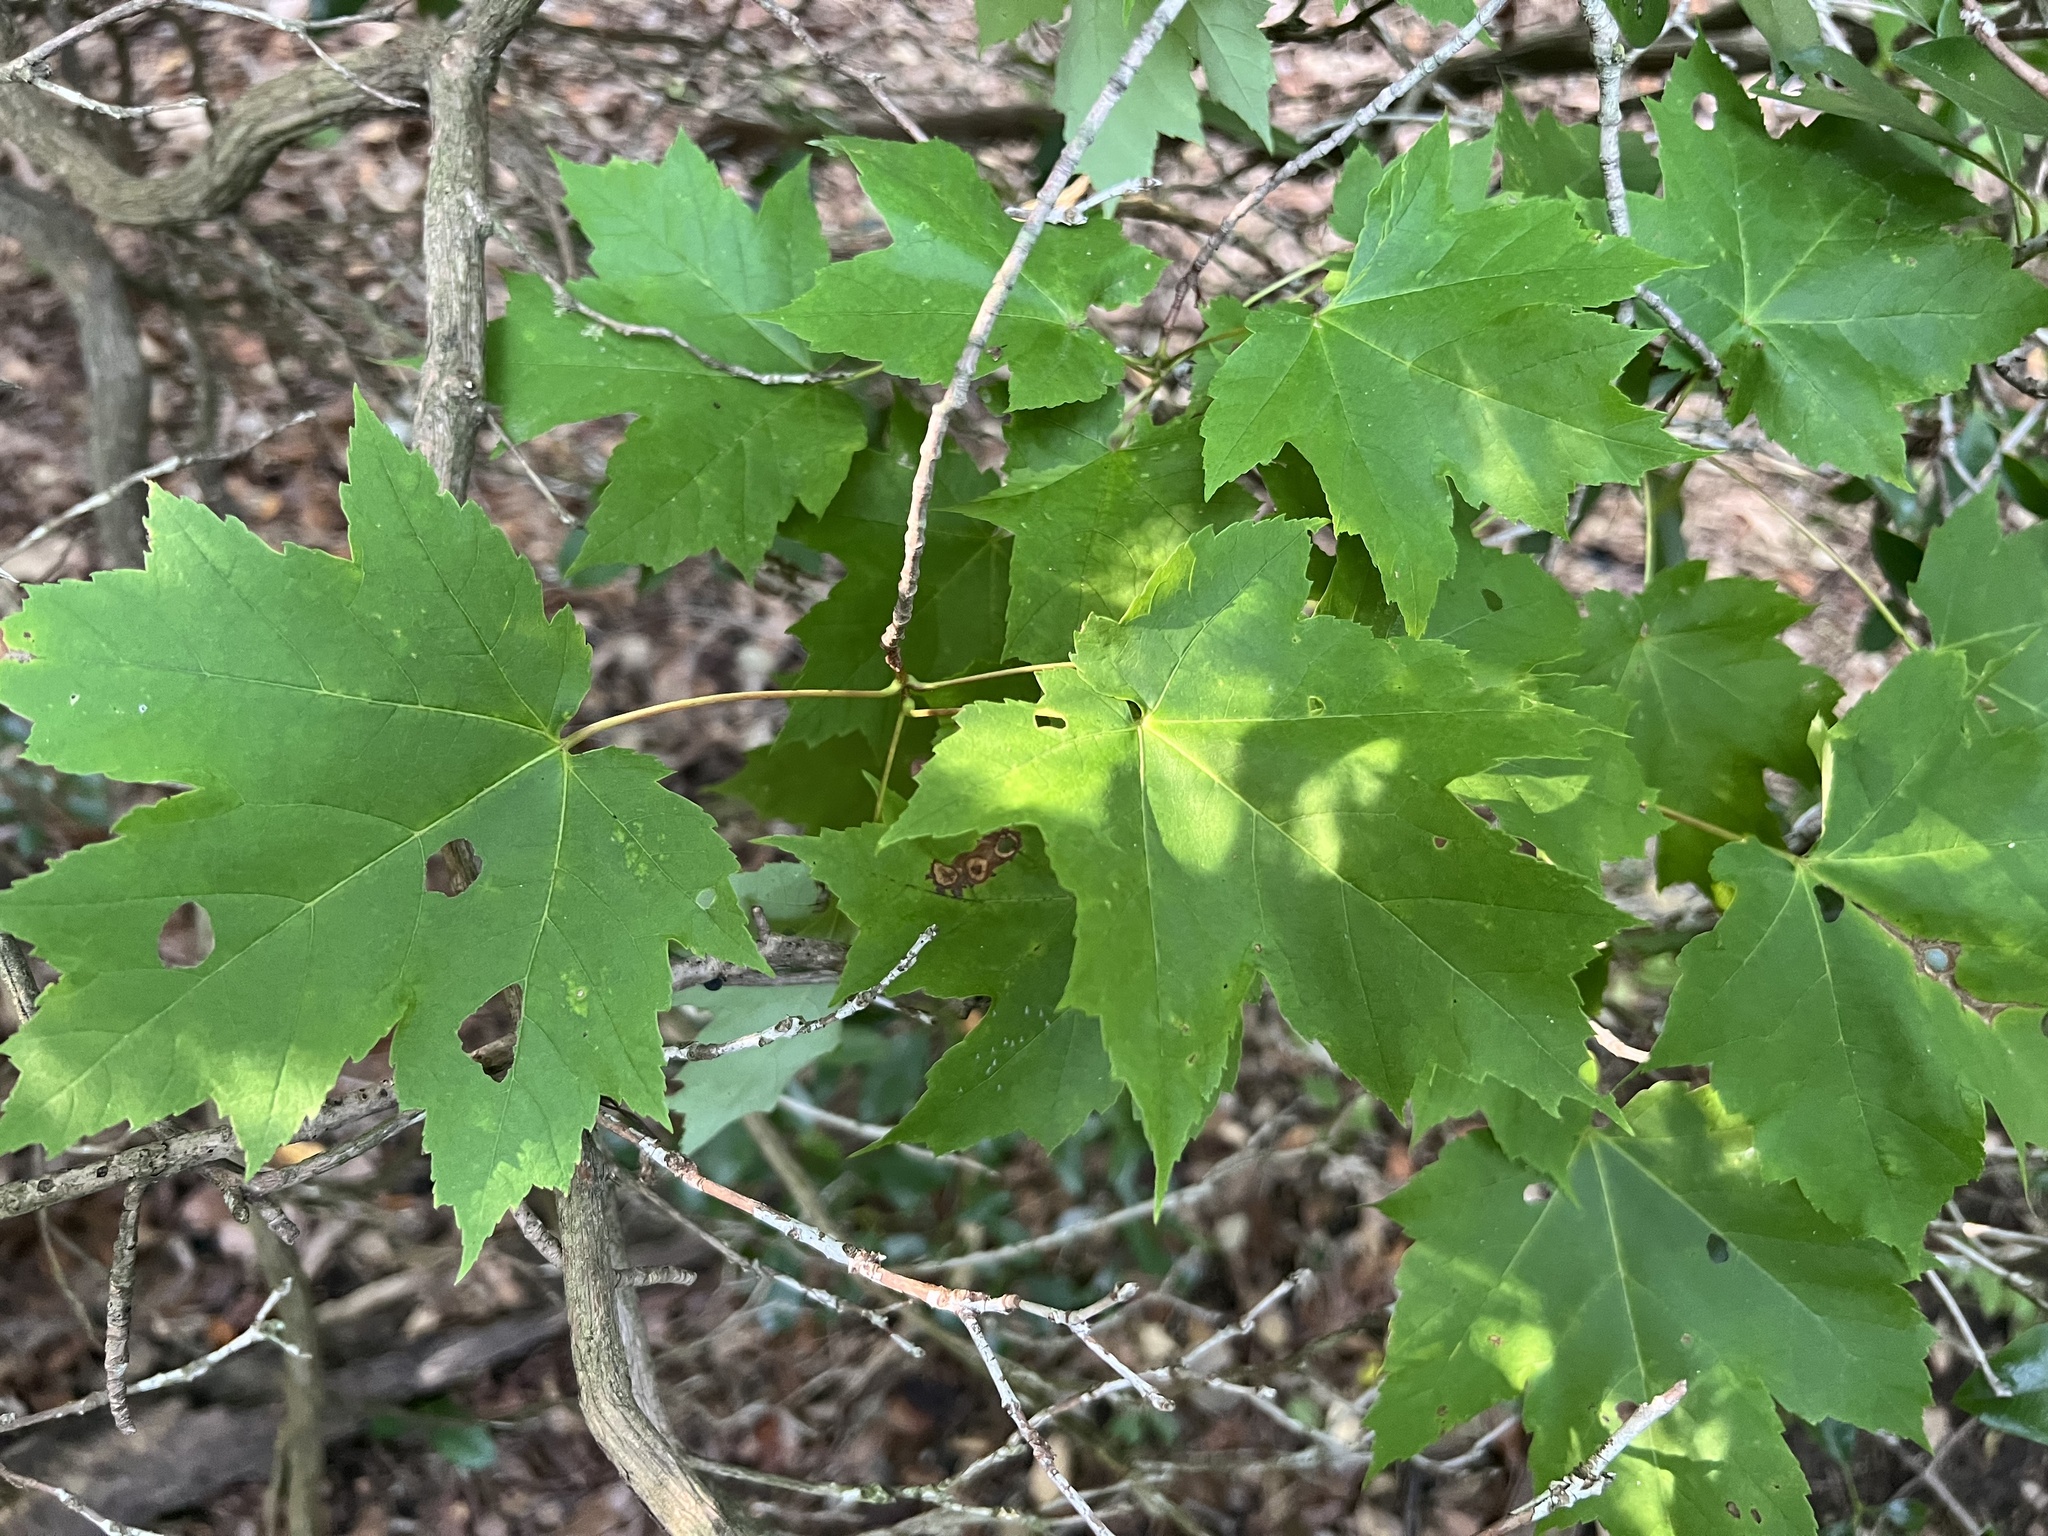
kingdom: Plantae
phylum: Tracheophyta
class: Magnoliopsida
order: Sapindales
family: Sapindaceae
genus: Acer
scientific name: Acer rubrum
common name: Red maple
